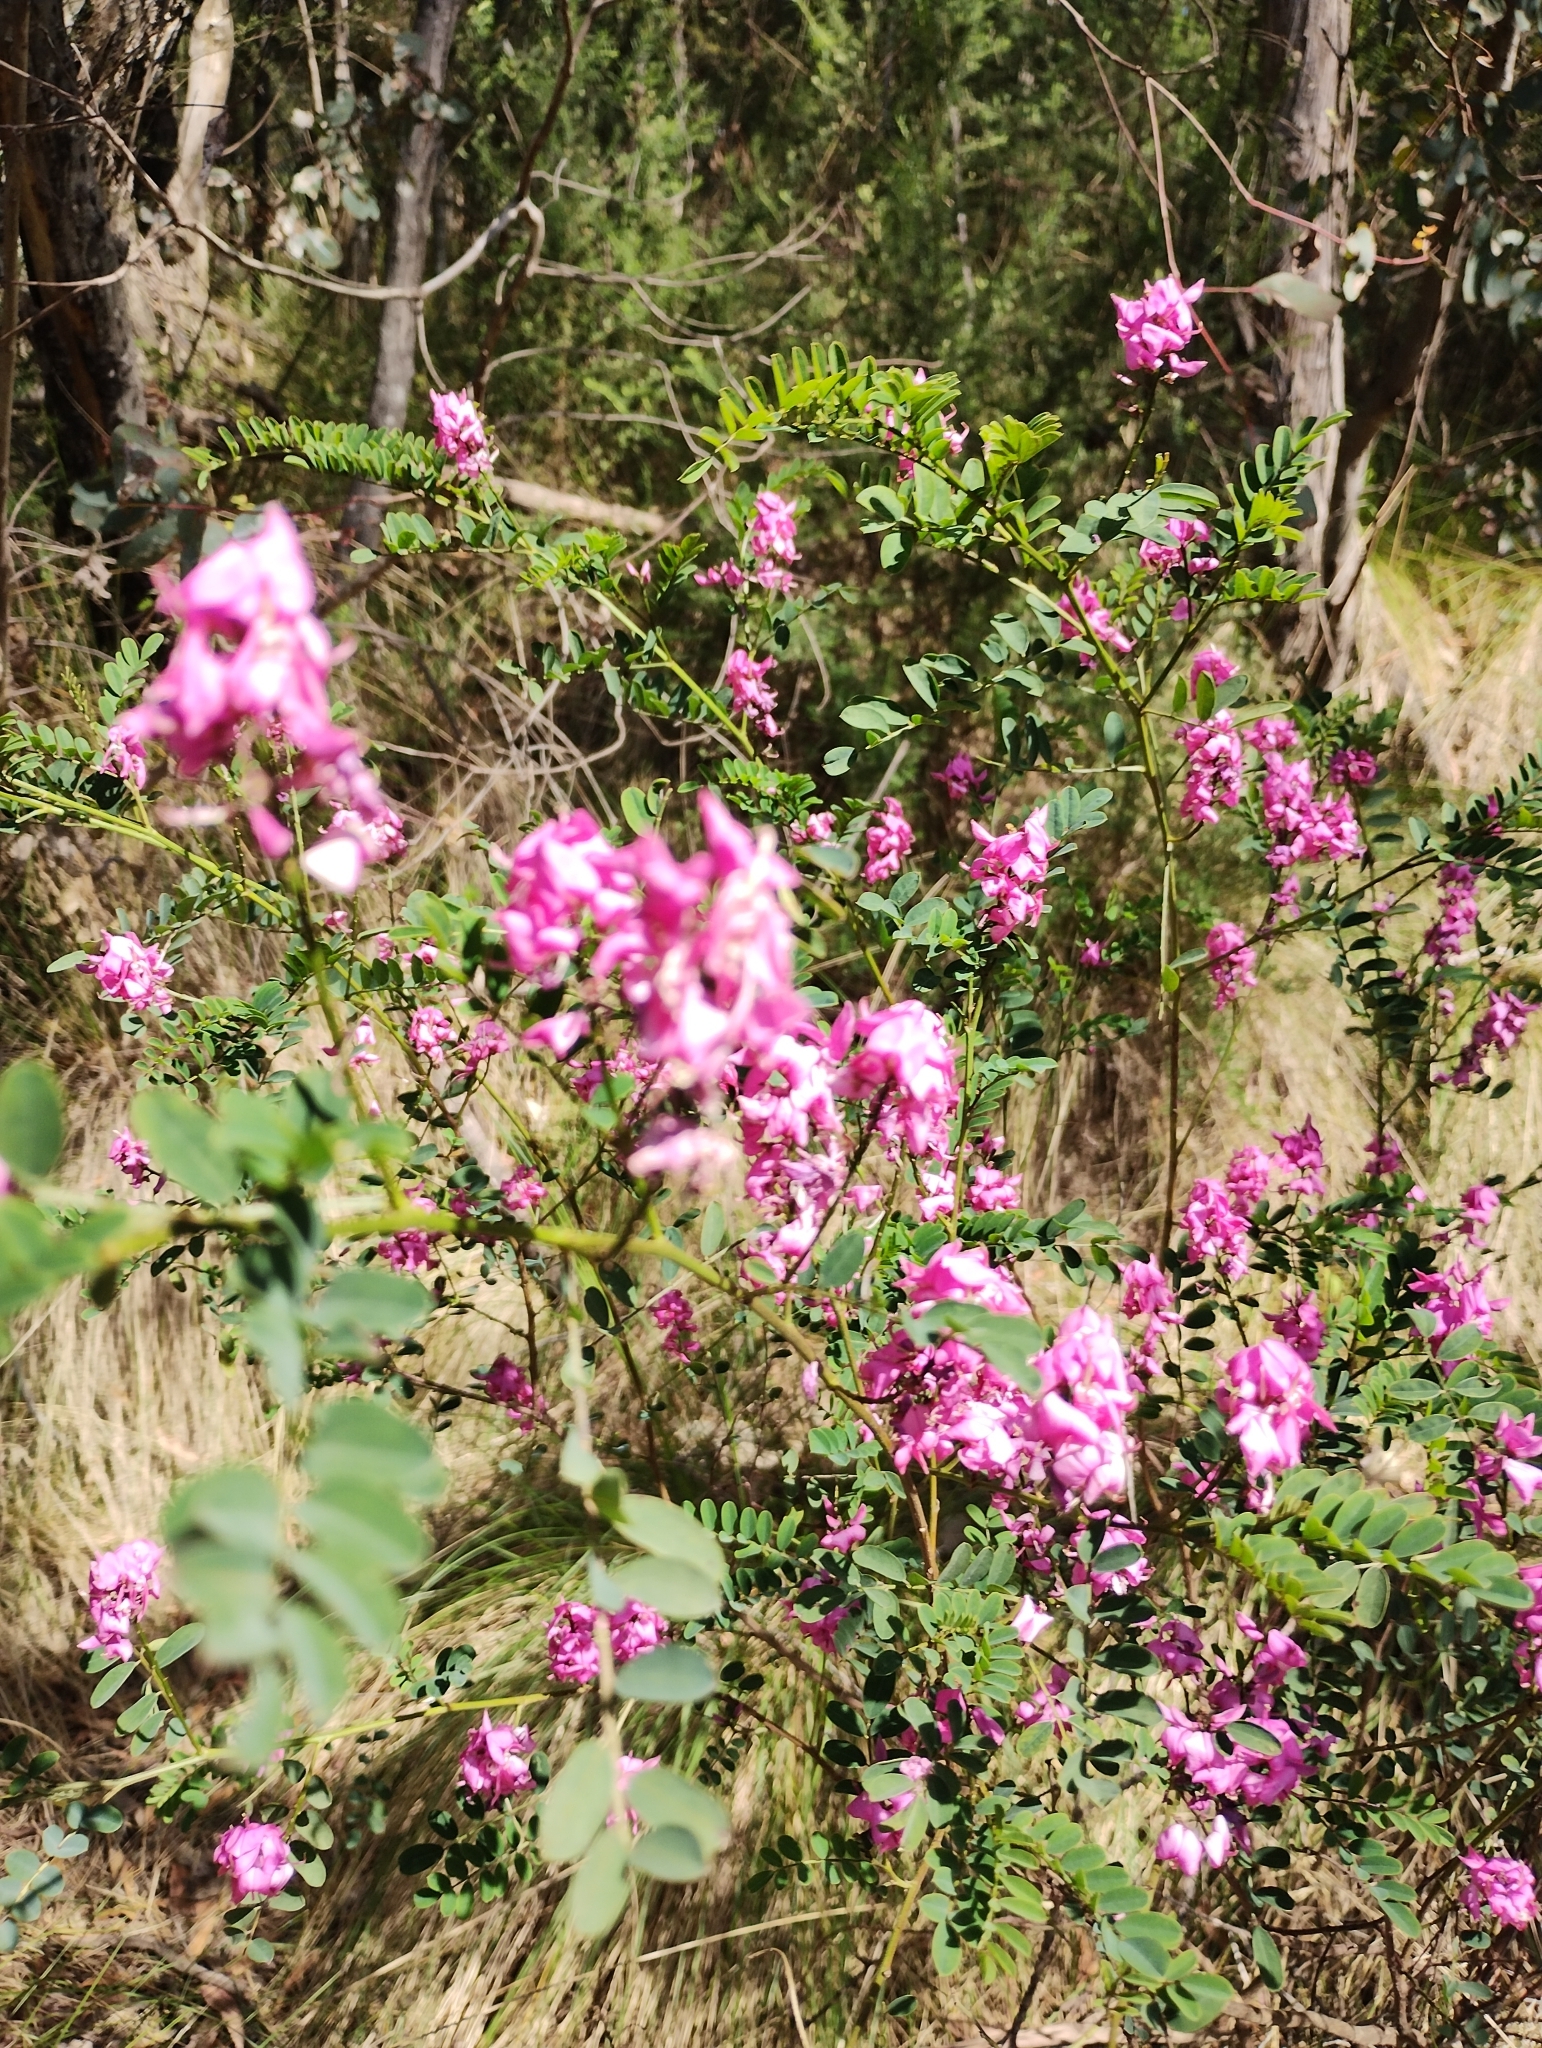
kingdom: Plantae
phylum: Tracheophyta
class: Magnoliopsida
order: Fabales
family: Fabaceae
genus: Indigofera
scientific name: Indigofera australis
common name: Australian indigo
